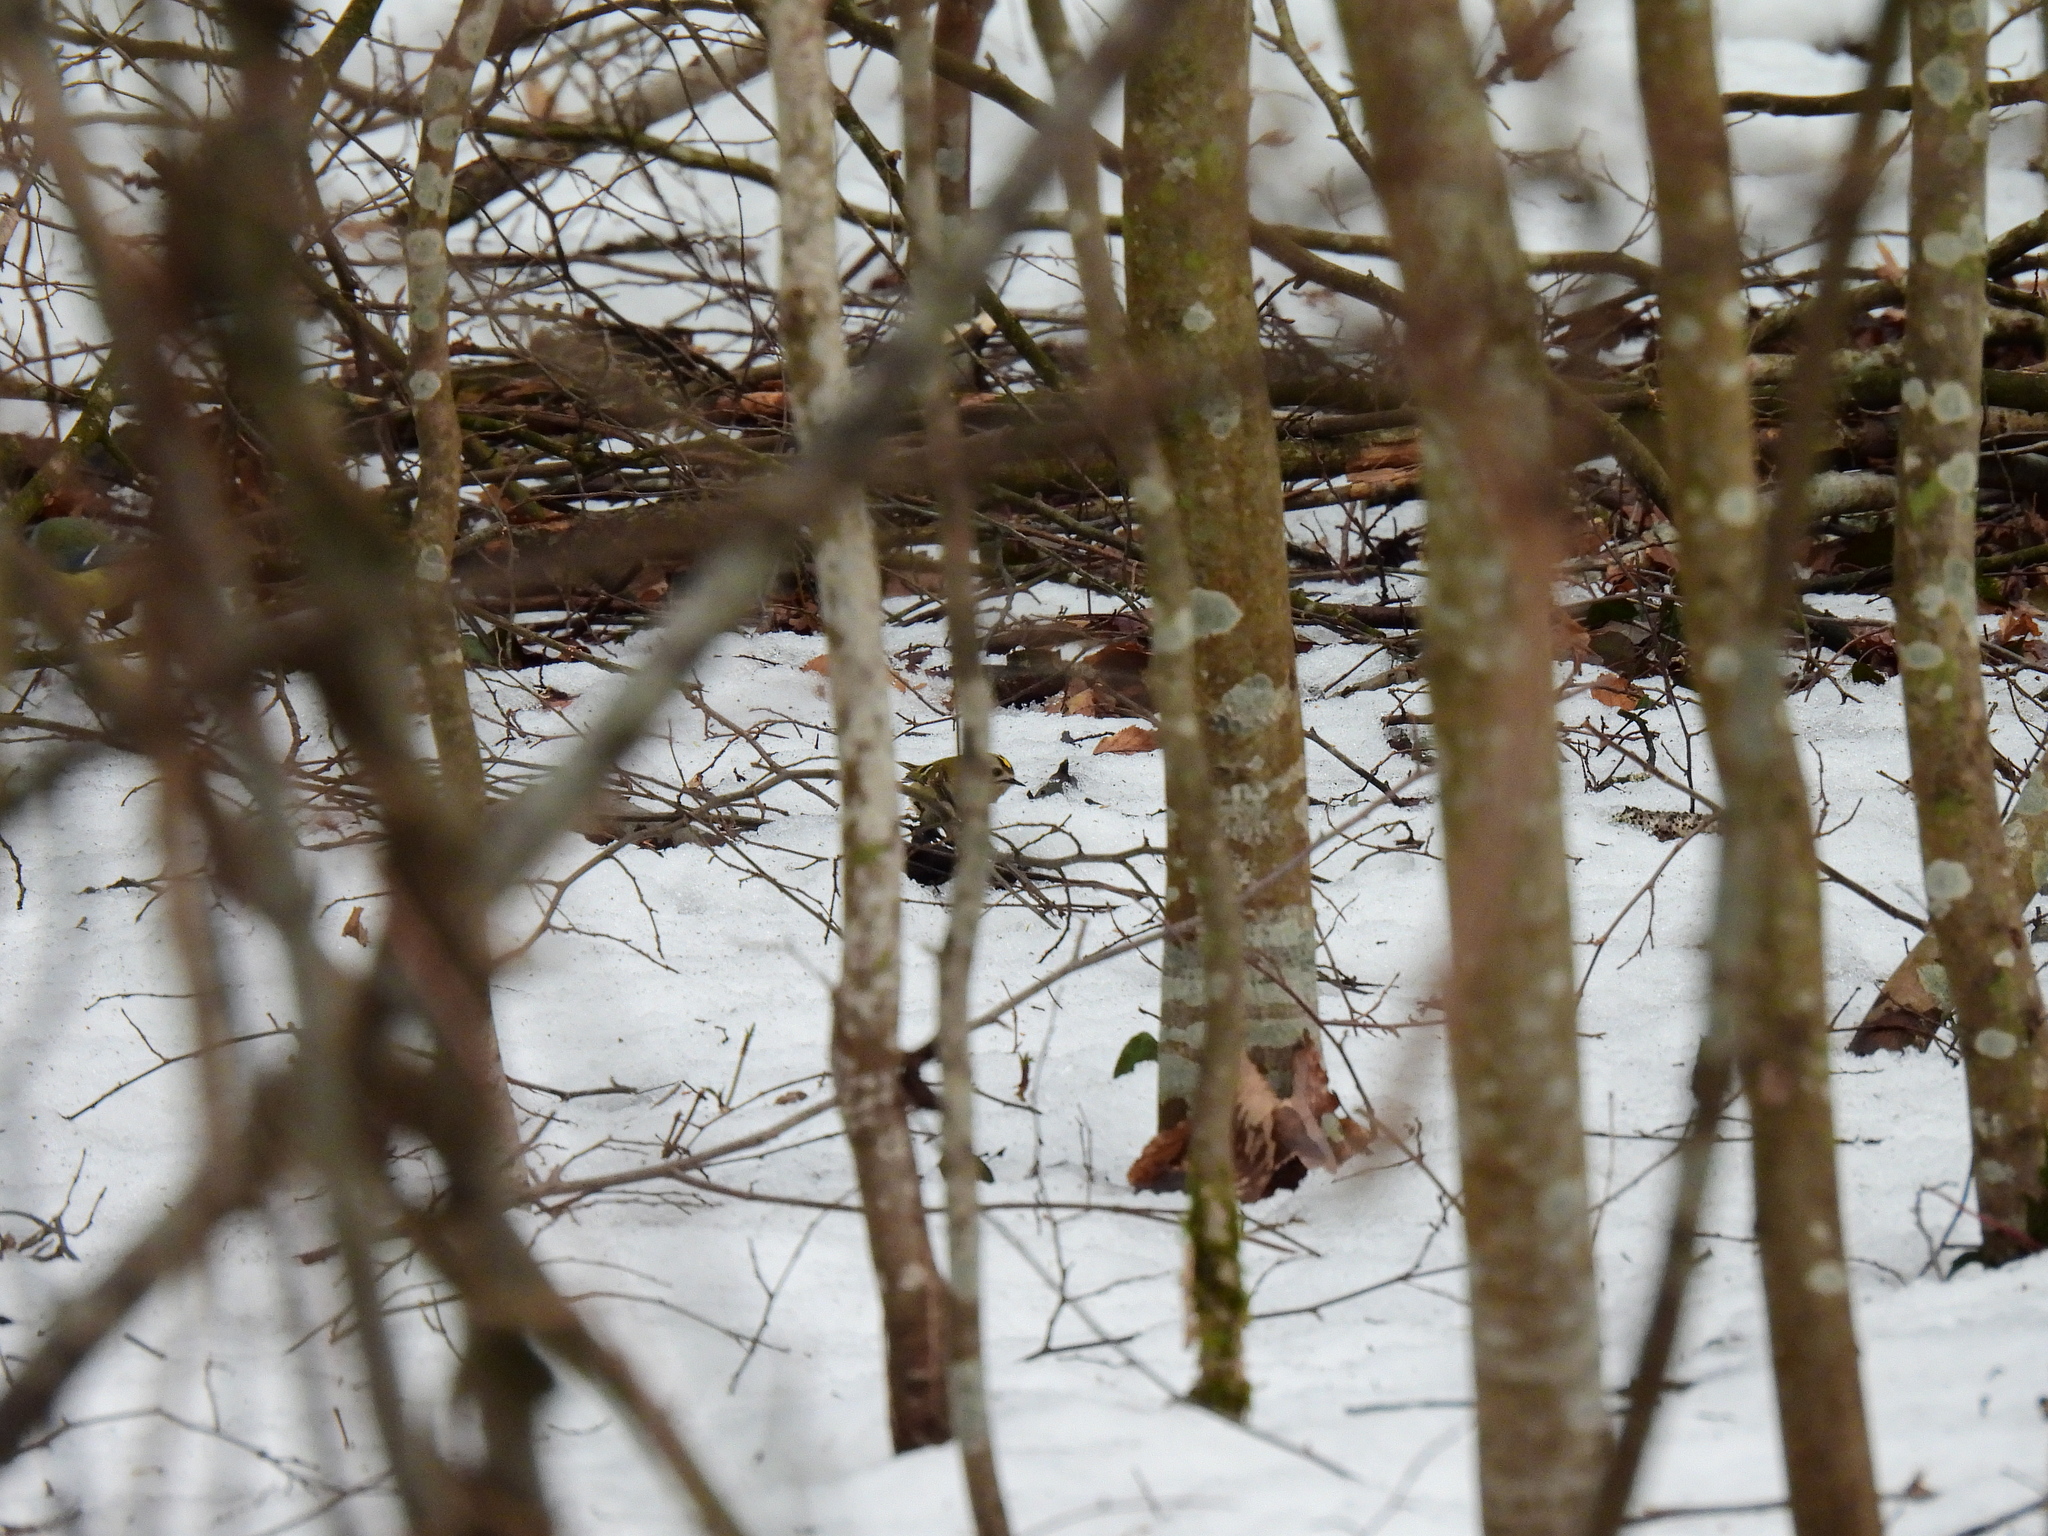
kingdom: Animalia
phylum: Chordata
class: Aves
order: Passeriformes
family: Regulidae
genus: Regulus
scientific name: Regulus regulus
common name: Goldcrest
